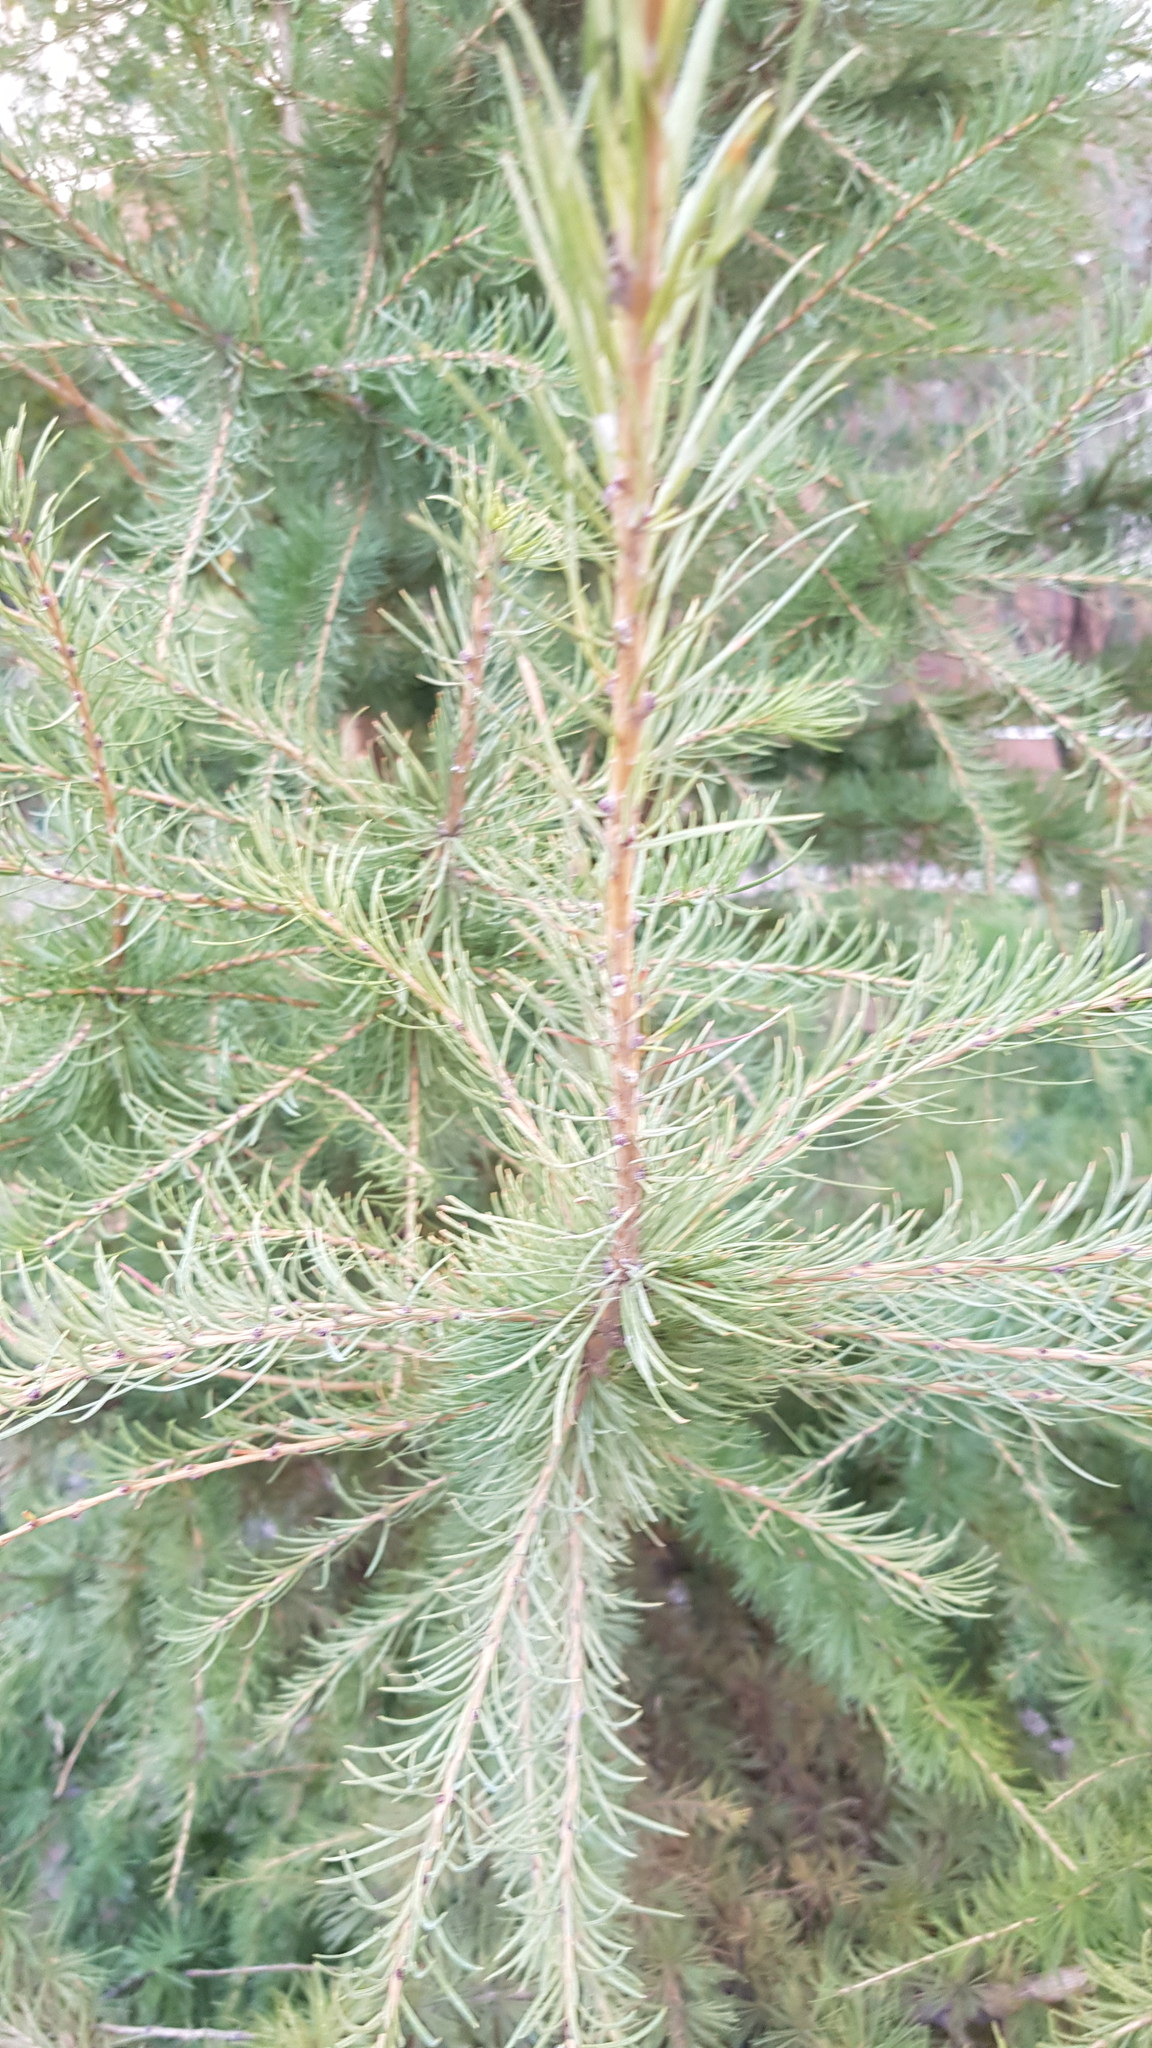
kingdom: Plantae
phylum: Tracheophyta
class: Pinopsida
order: Pinales
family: Pinaceae
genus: Larix
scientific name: Larix sibirica
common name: Siberian larch
